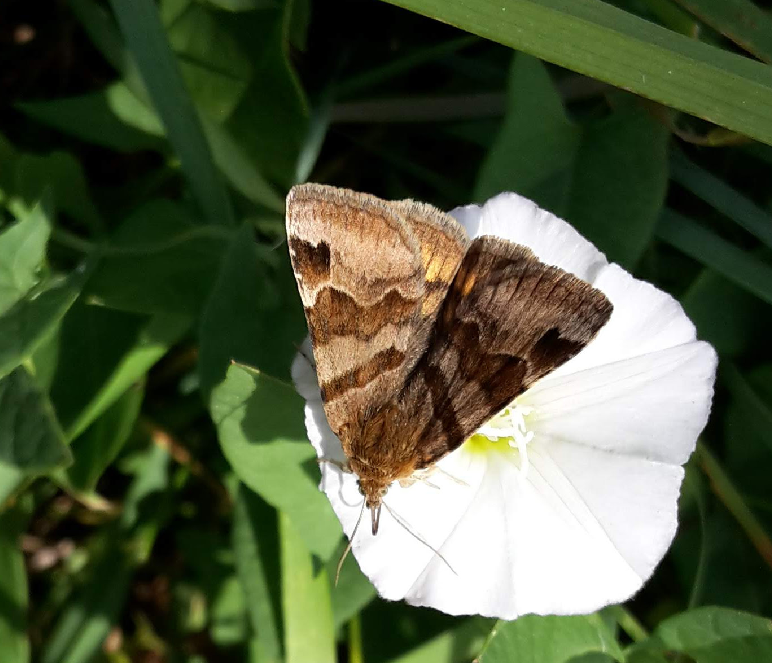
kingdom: Animalia
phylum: Arthropoda
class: Insecta
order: Lepidoptera
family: Erebidae
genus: Euclidia
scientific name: Euclidia glyphica
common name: Burnet companion
